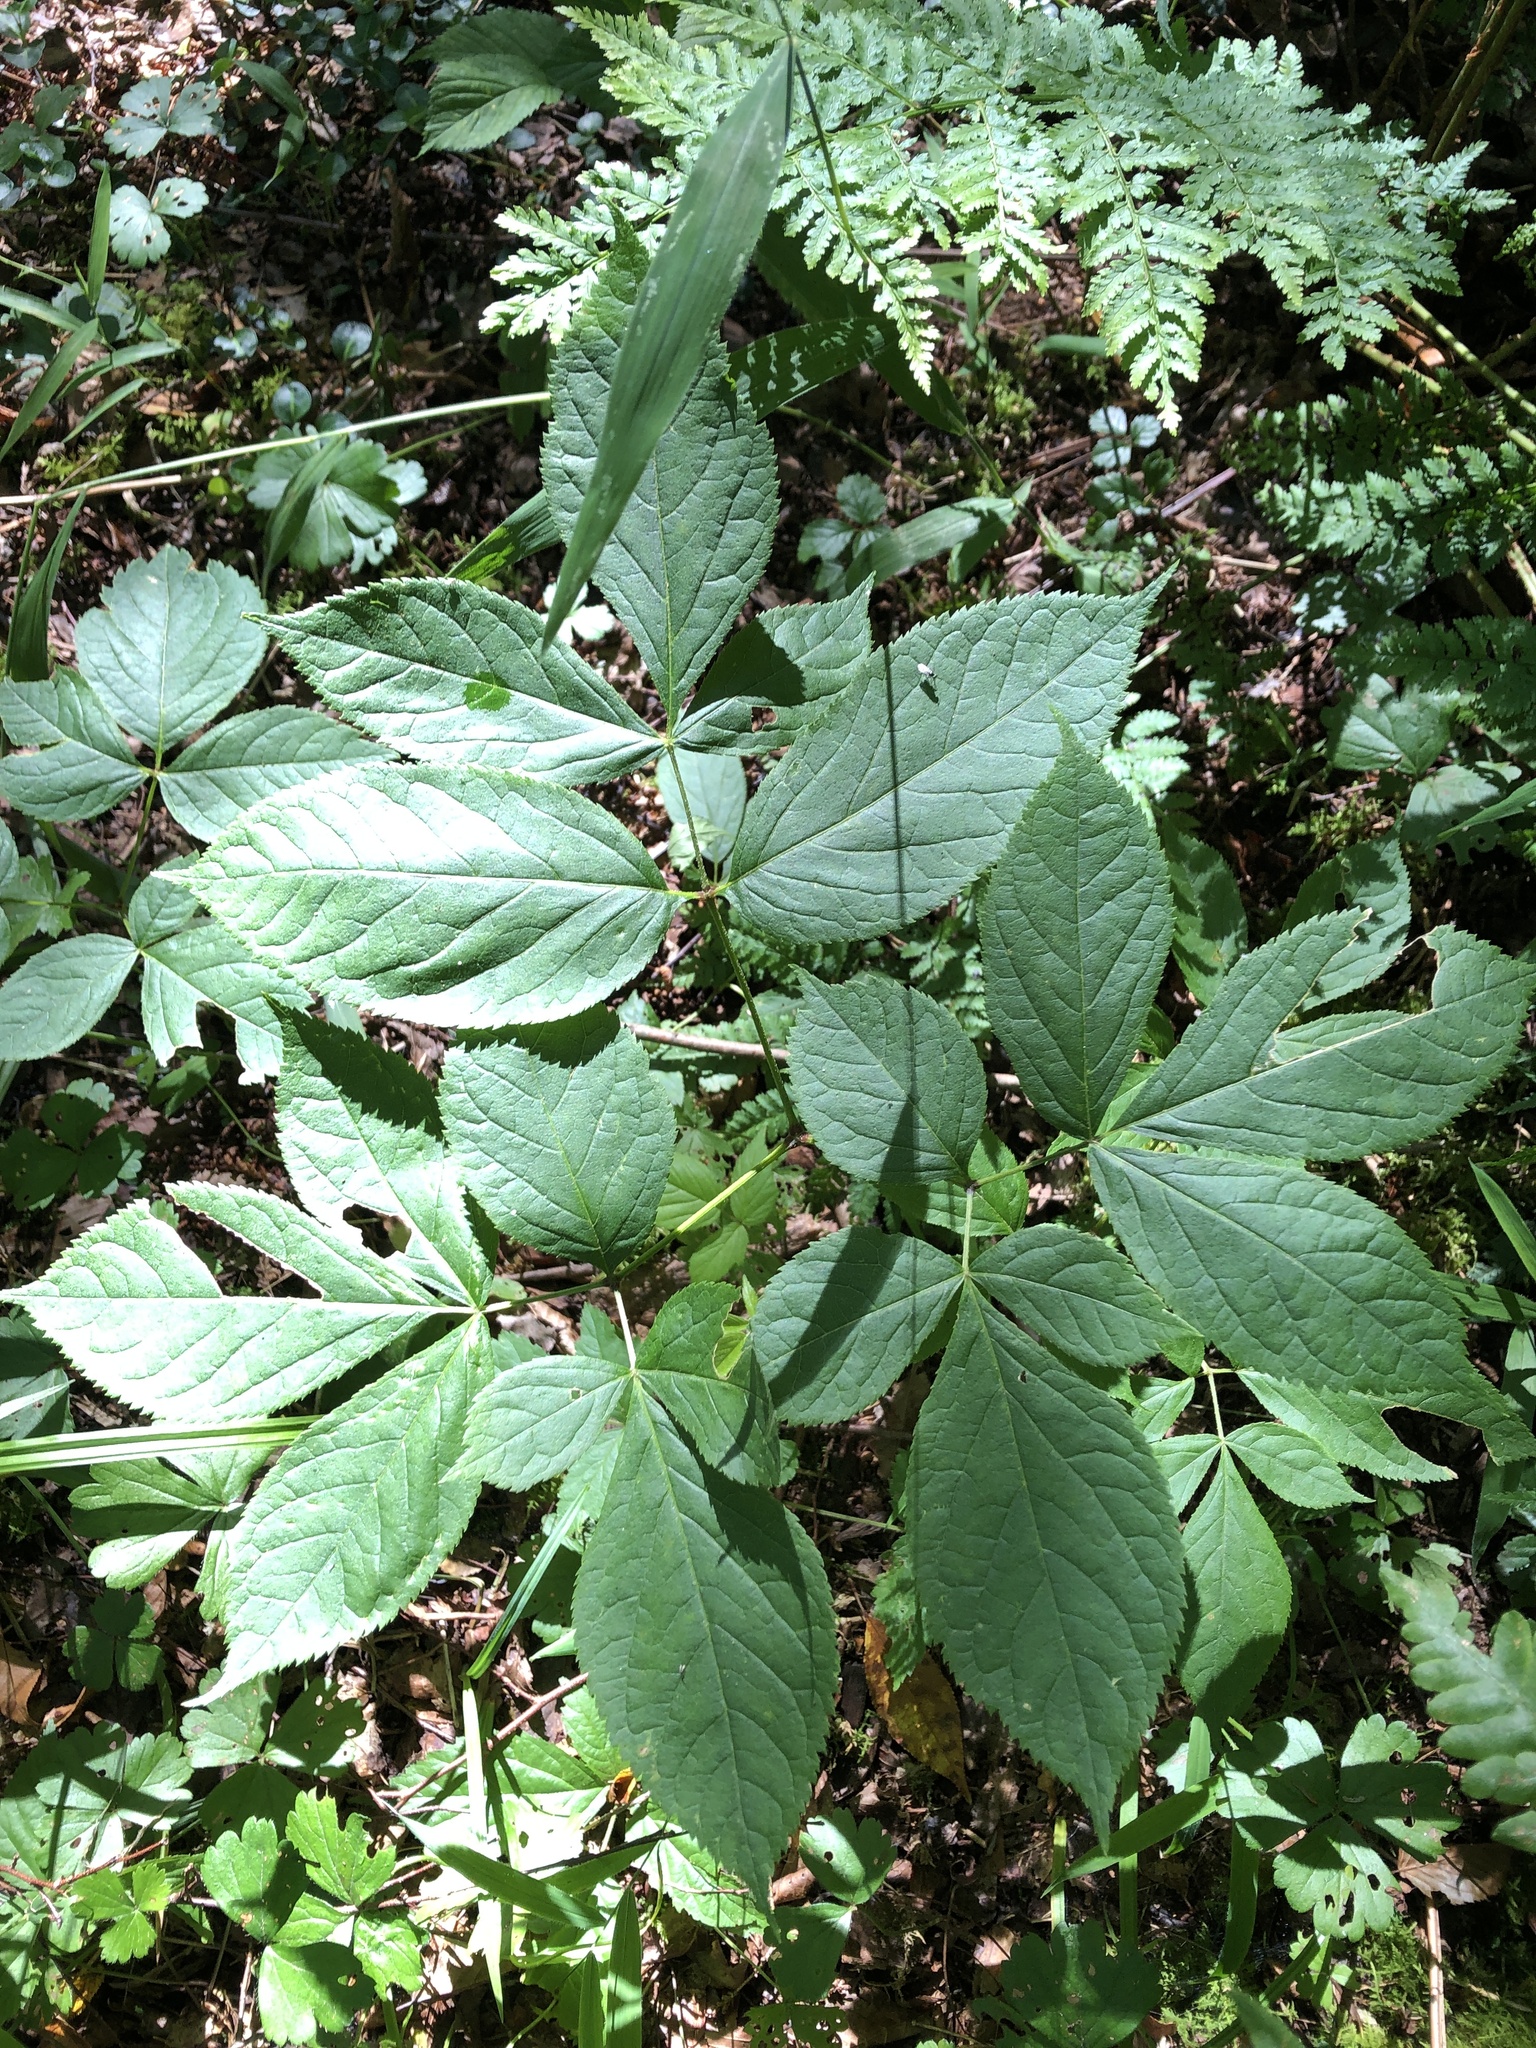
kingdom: Plantae
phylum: Tracheophyta
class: Magnoliopsida
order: Apiales
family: Araliaceae
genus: Aralia
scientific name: Aralia nudicaulis
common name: Wild sarsaparilla
